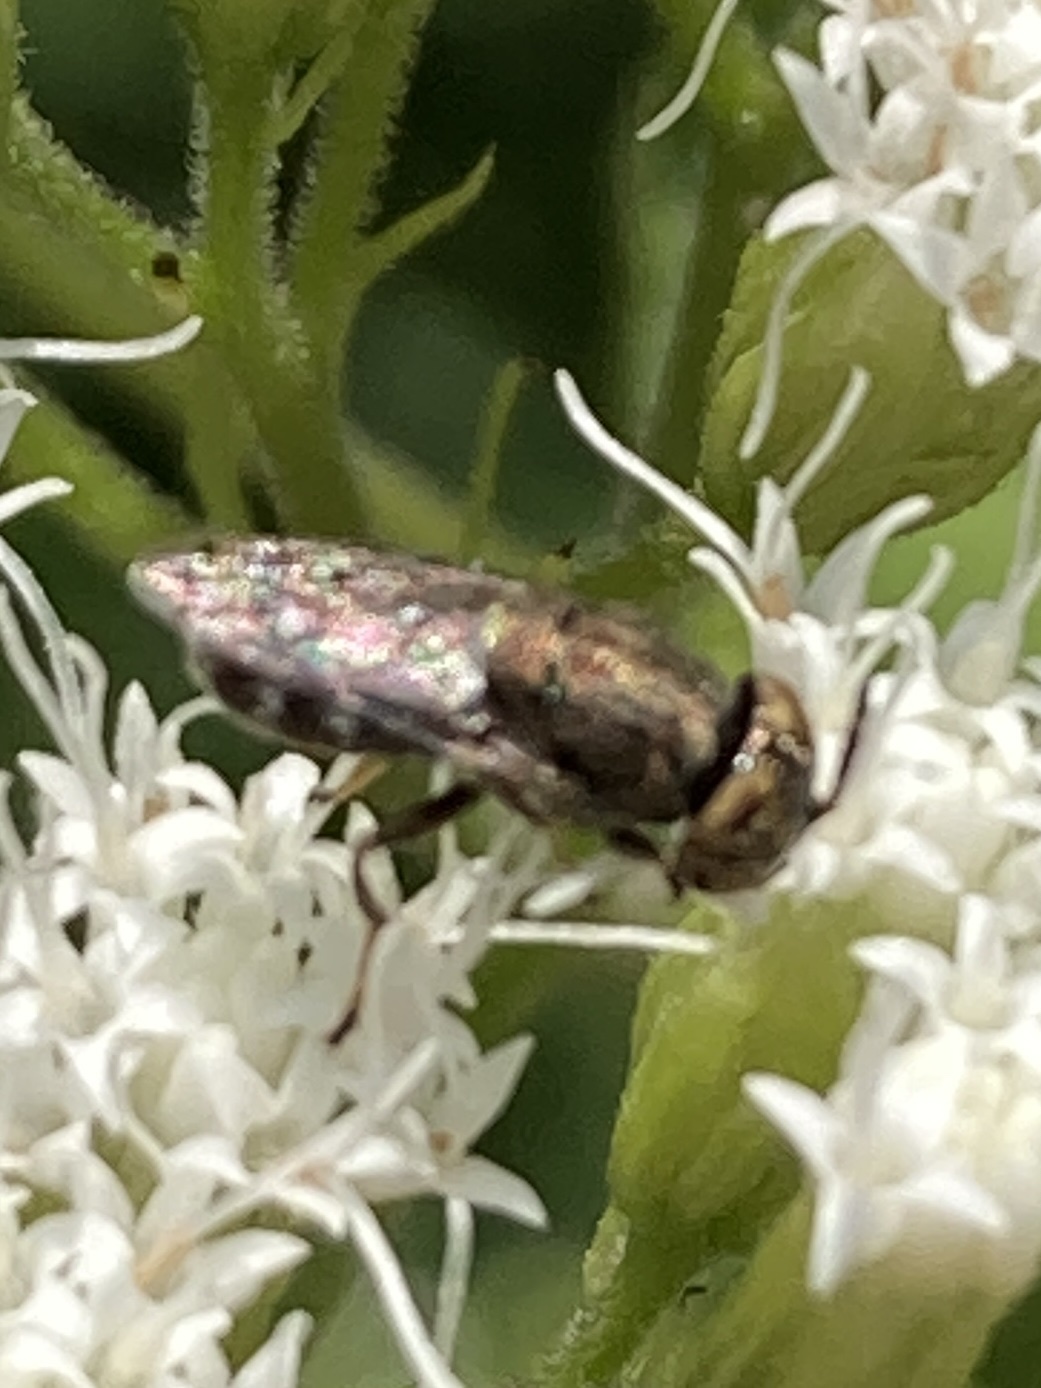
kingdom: Animalia
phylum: Arthropoda
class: Insecta
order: Diptera
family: Syrphidae
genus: Orthonevra
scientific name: Orthonevra nitida
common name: Wavy mucksucker
